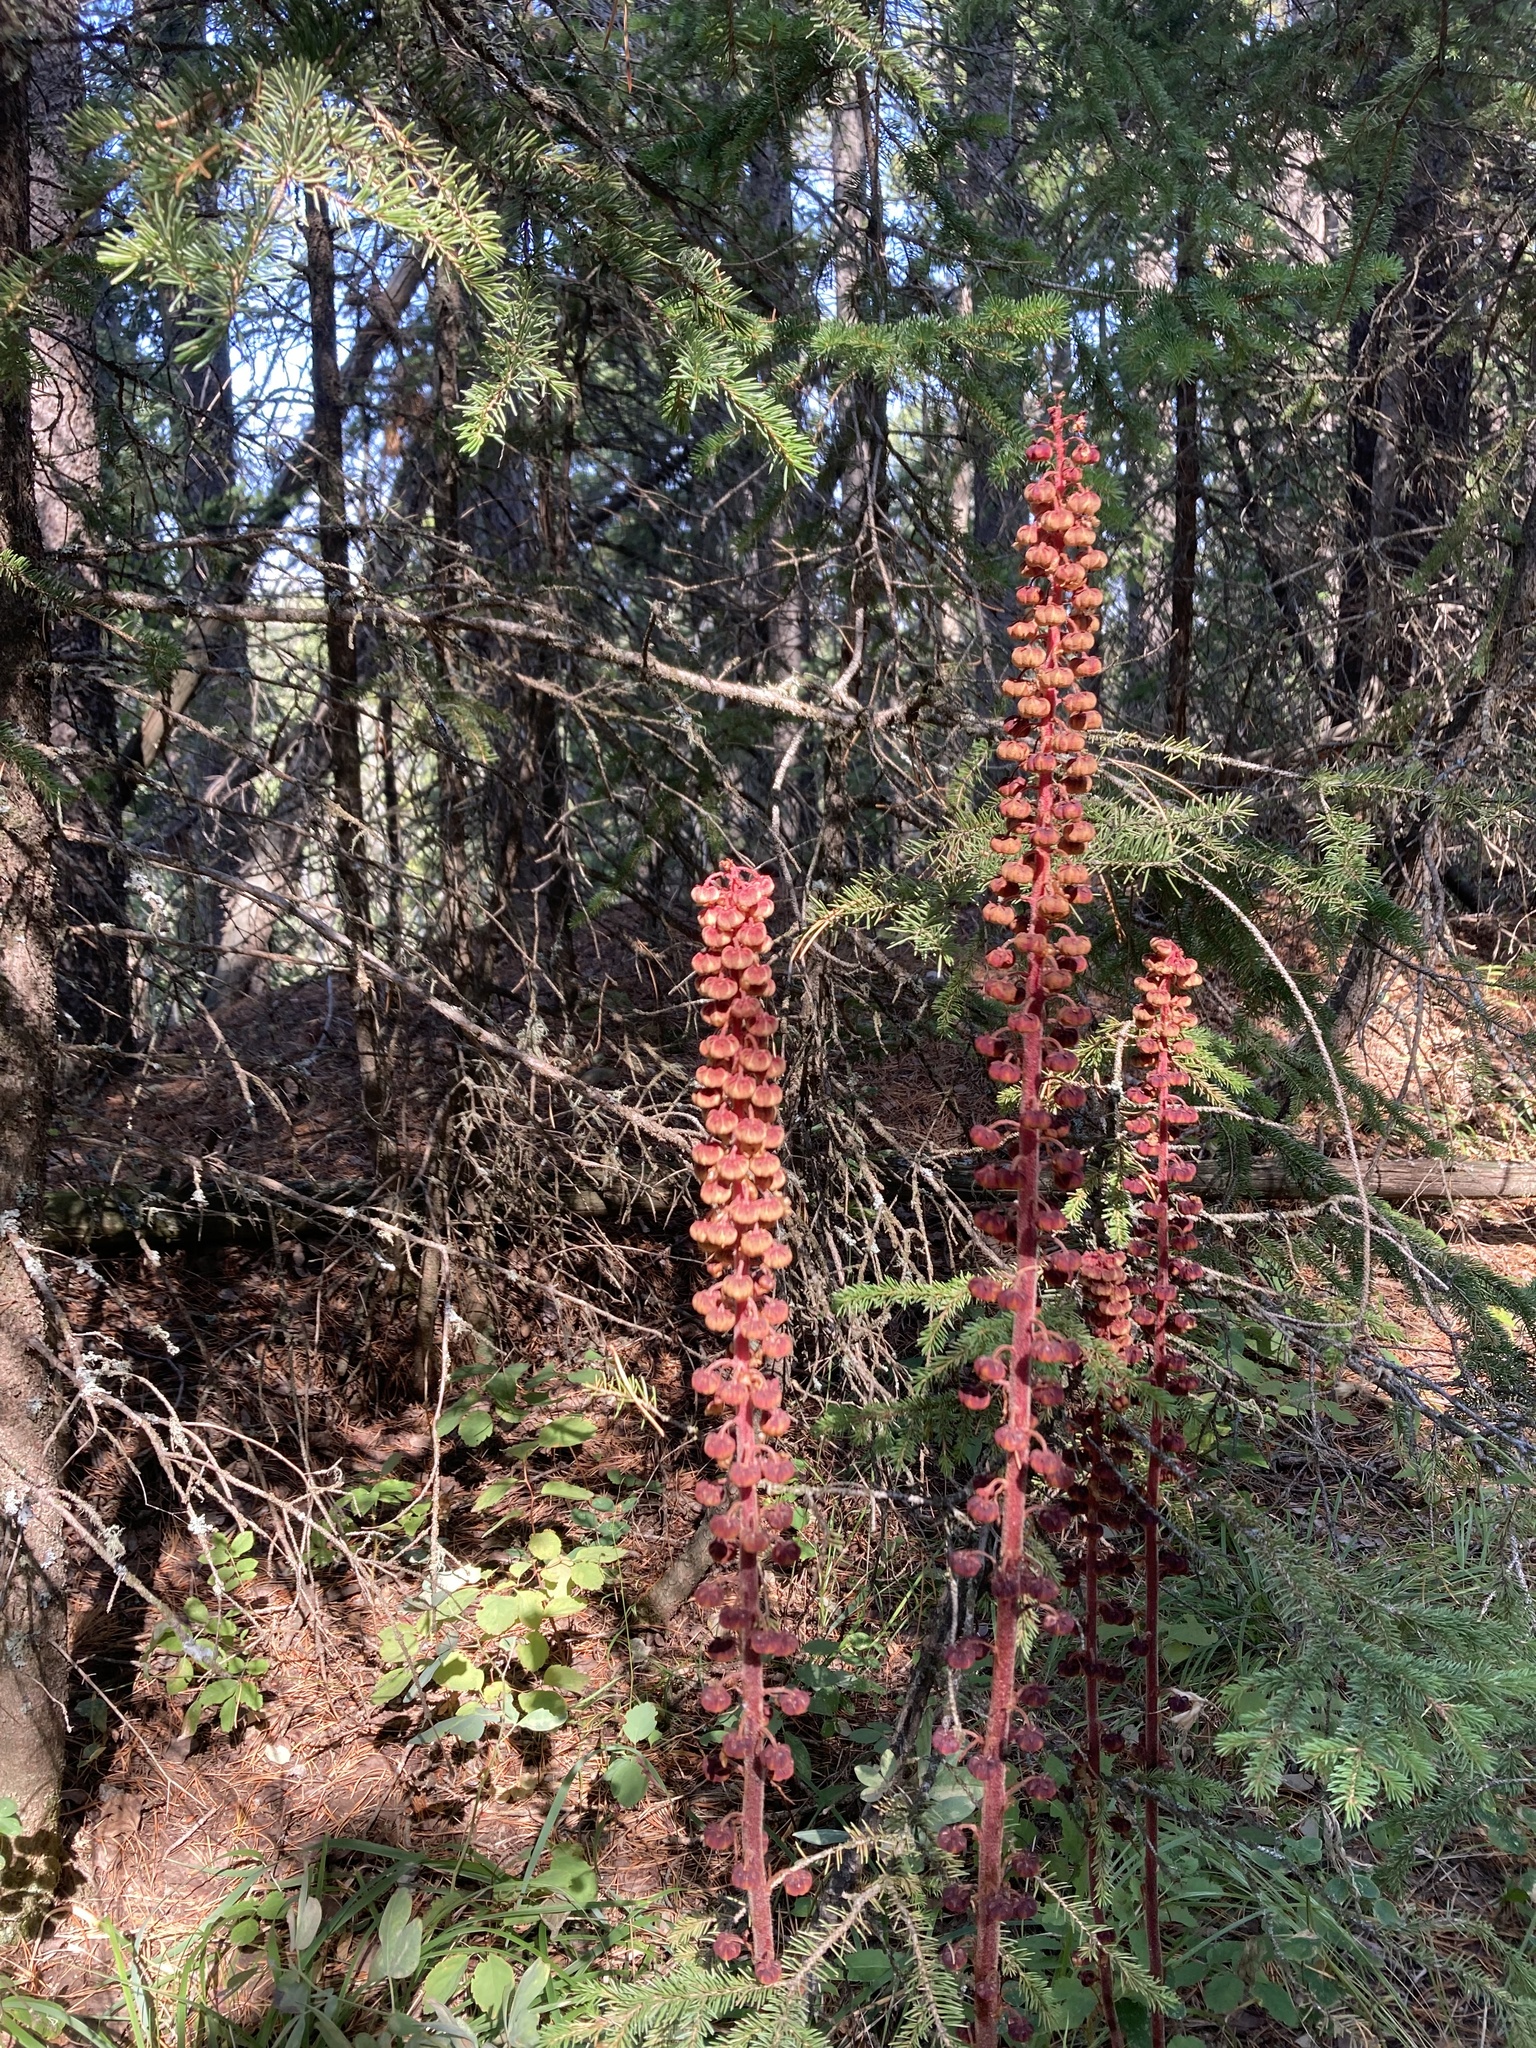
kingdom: Plantae
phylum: Tracheophyta
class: Magnoliopsida
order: Ericales
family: Ericaceae
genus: Pterospora
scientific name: Pterospora andromedea
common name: Giant bird's-nest
